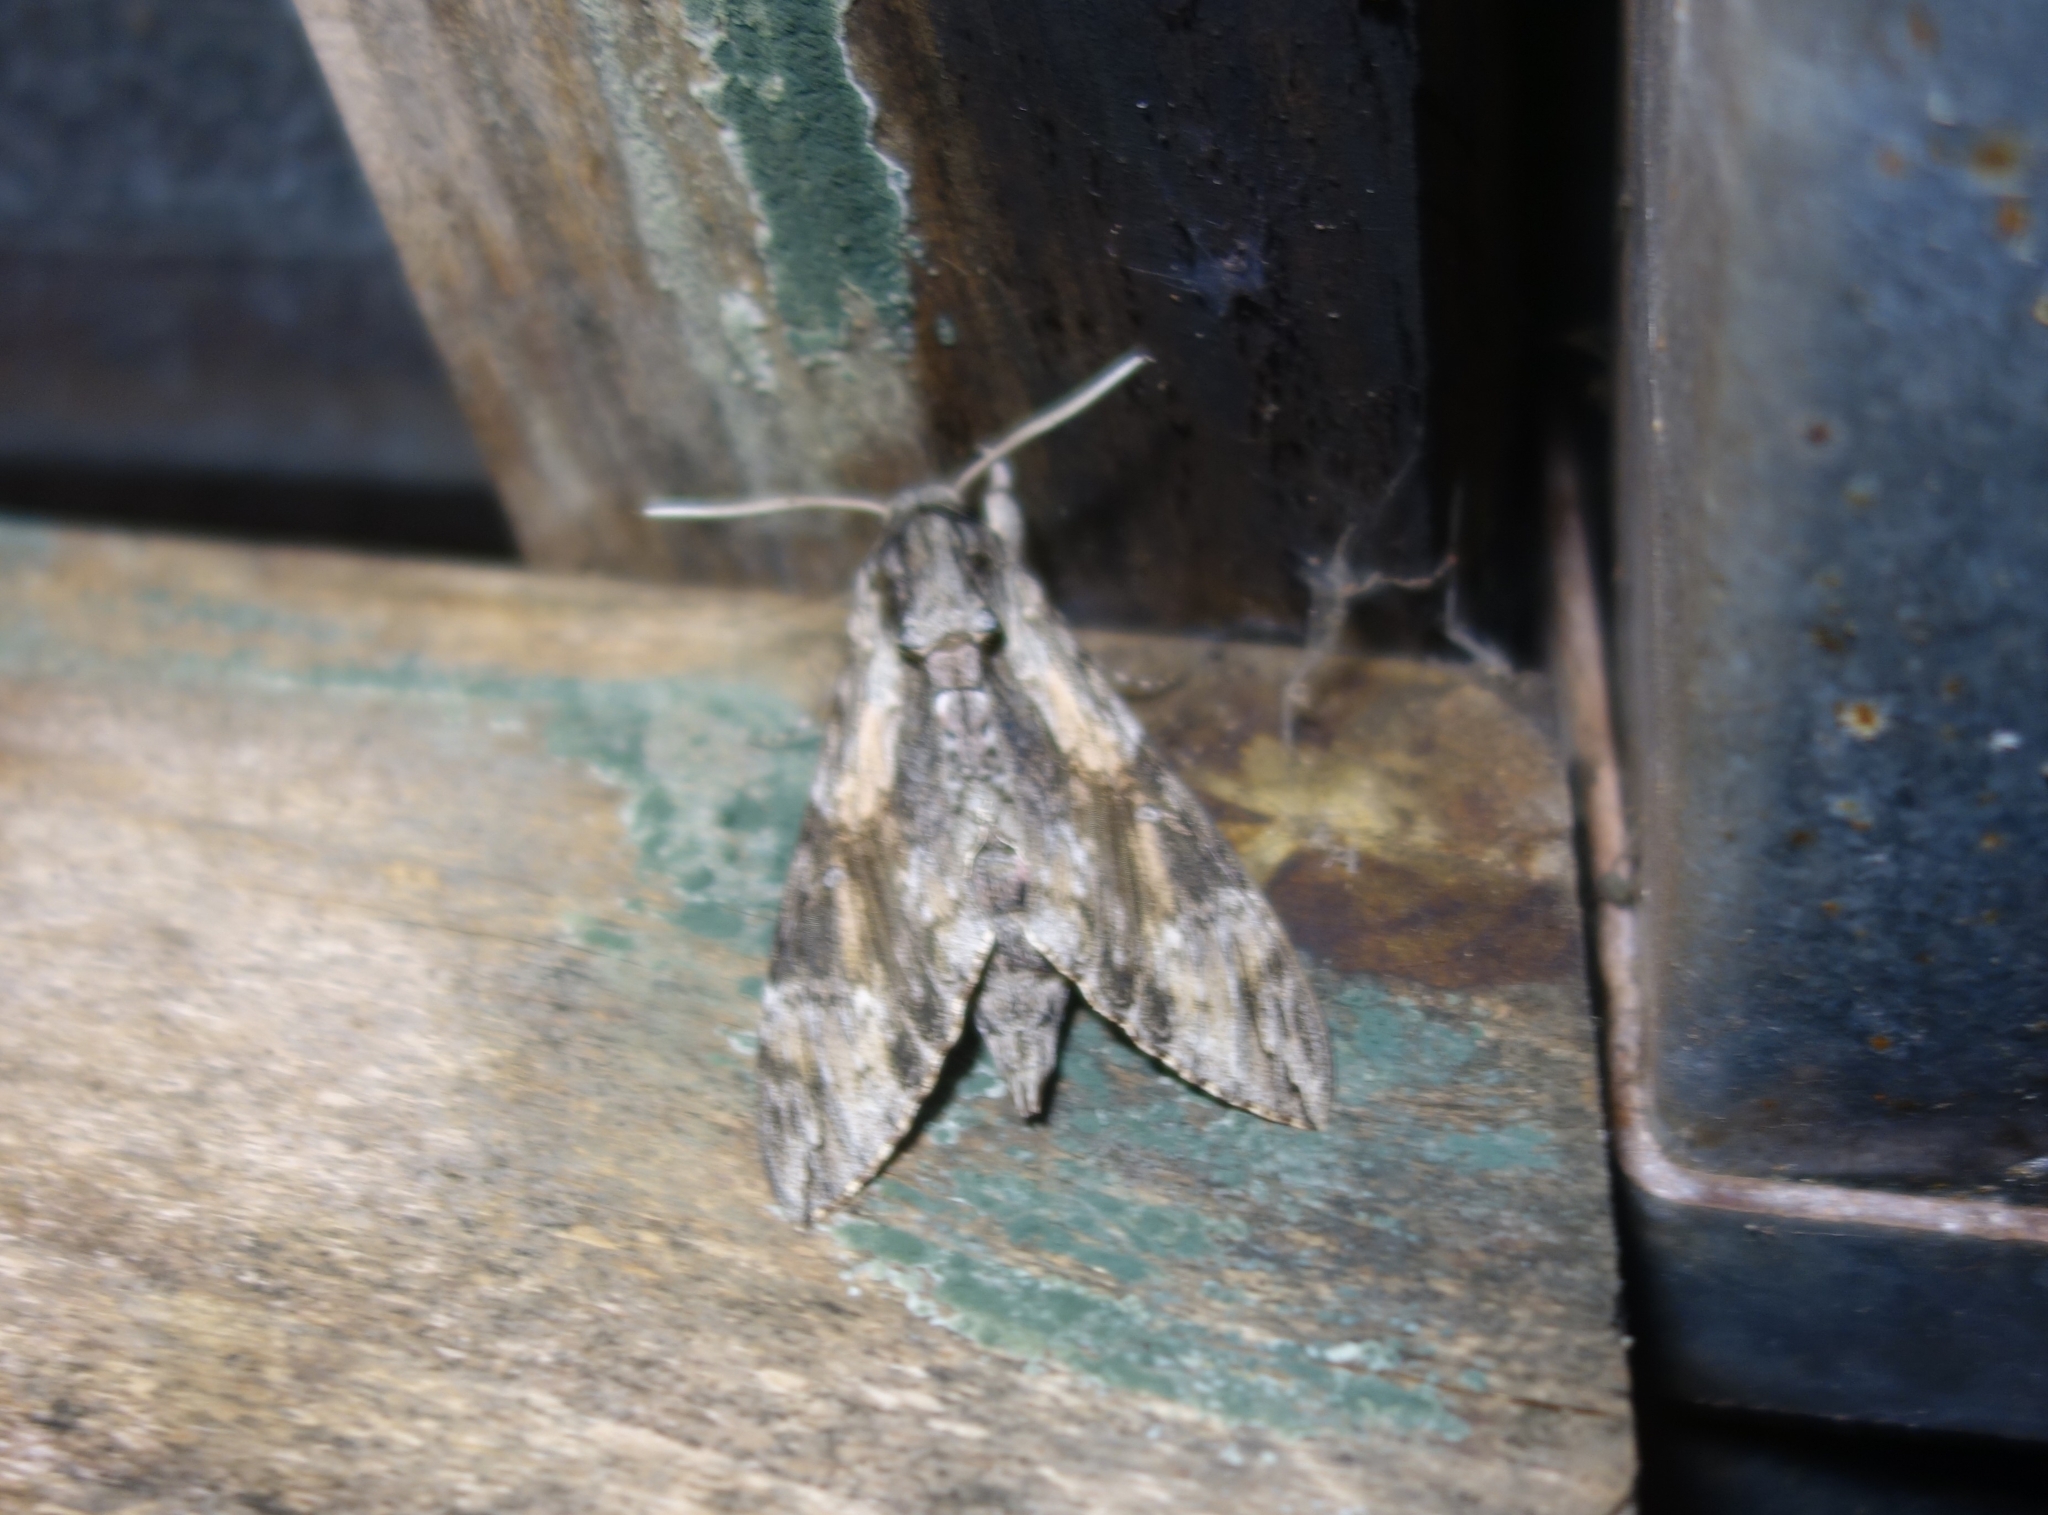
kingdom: Animalia
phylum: Arthropoda
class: Insecta
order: Lepidoptera
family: Sphingidae
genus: Agrius
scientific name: Agrius convolvuli
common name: Convolvulus hawkmoth
